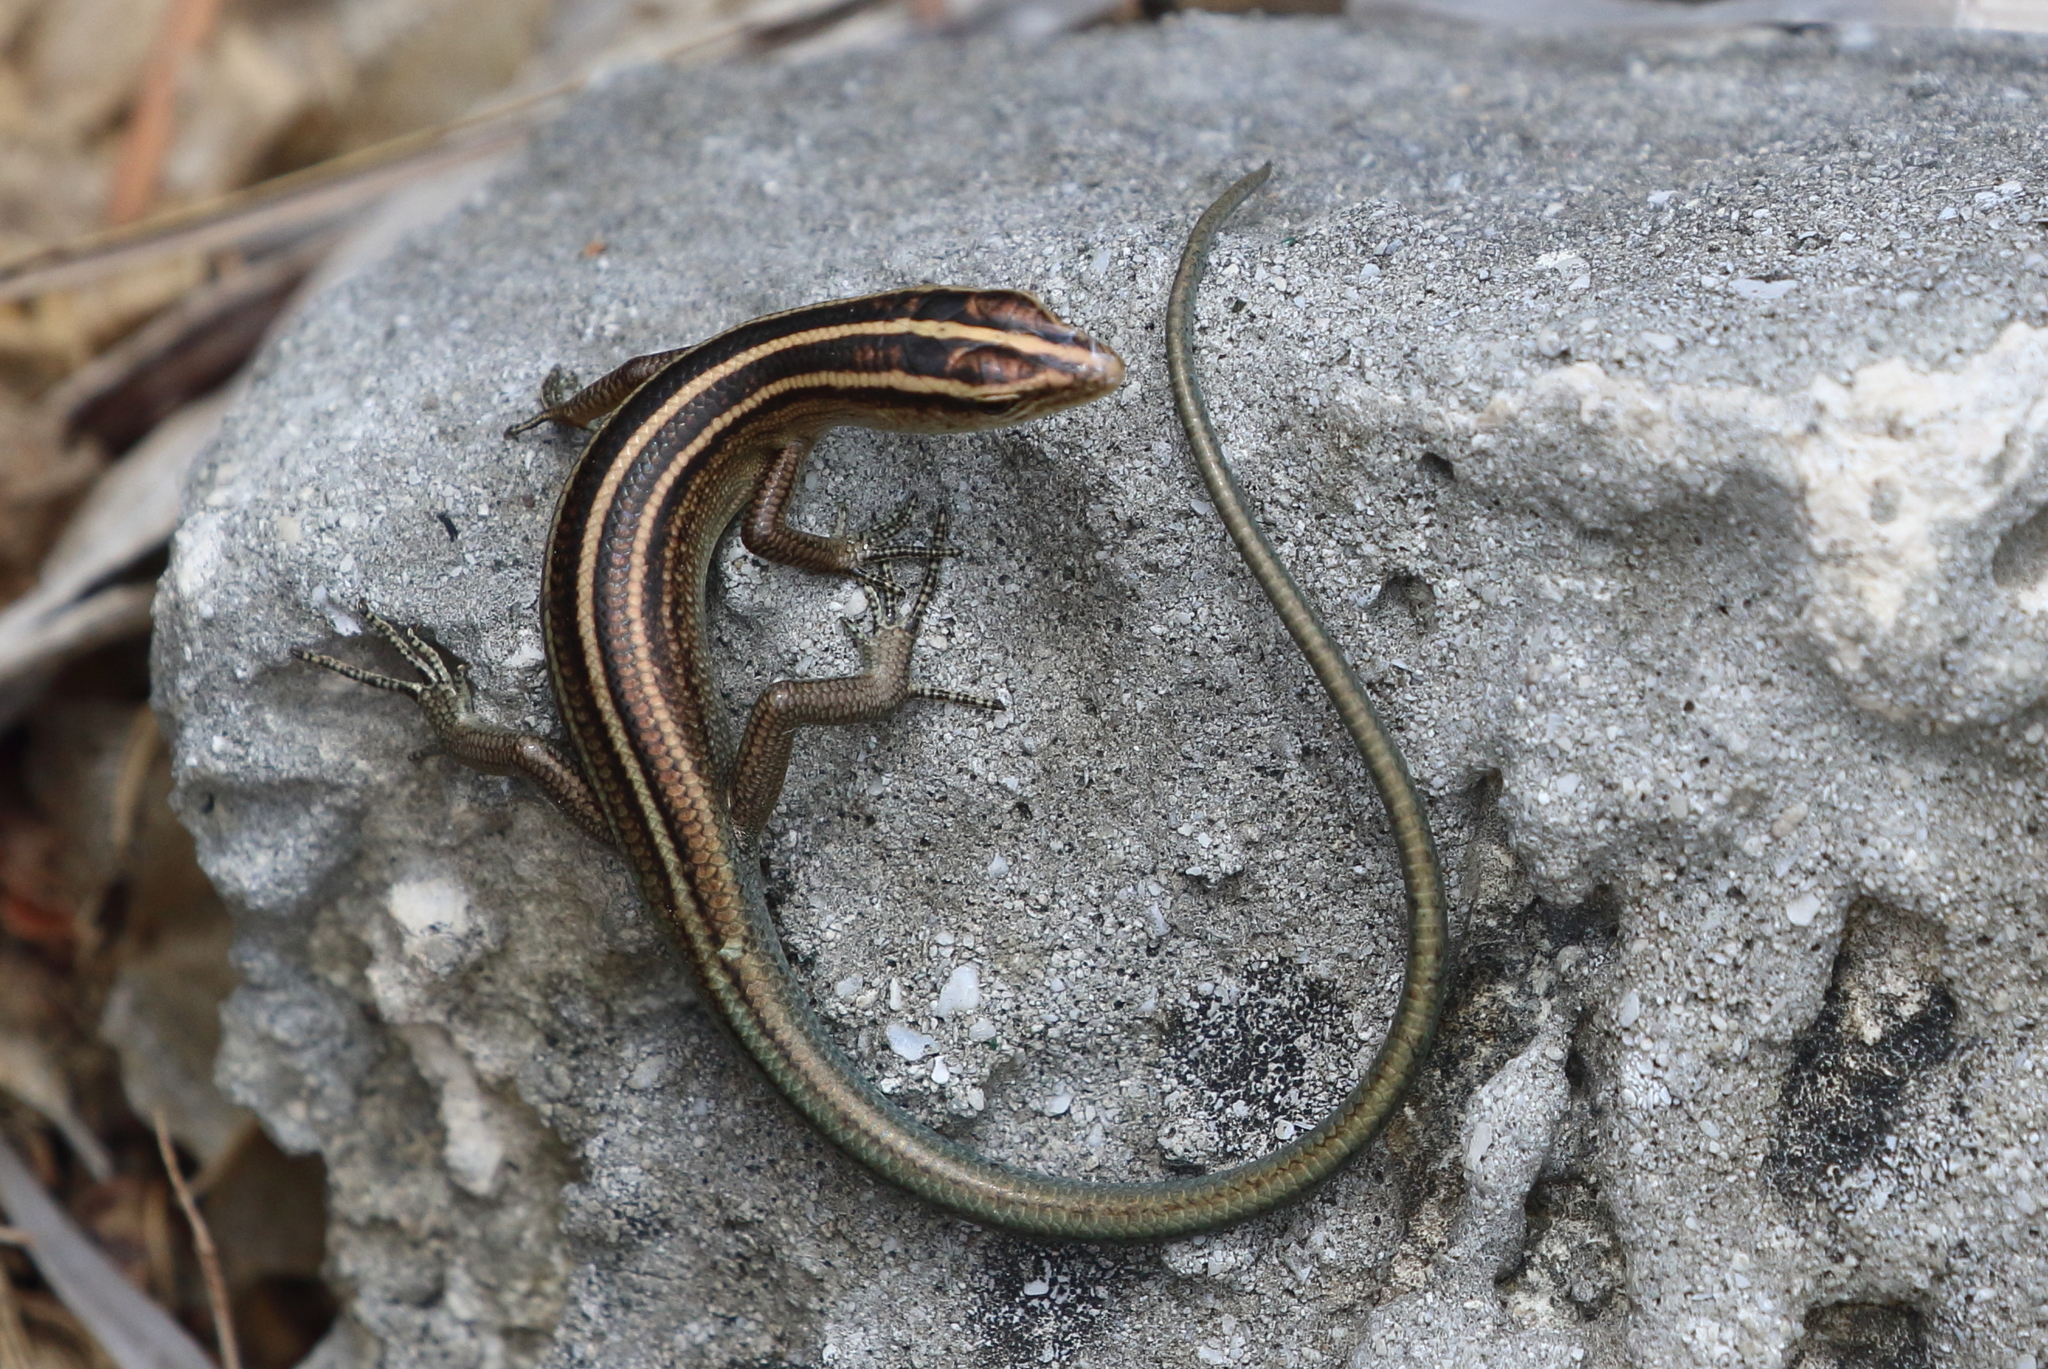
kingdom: Animalia
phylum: Chordata
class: Squamata
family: Scincidae
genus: Emoia
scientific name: Emoia cyanura
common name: Copper-tailed skink
